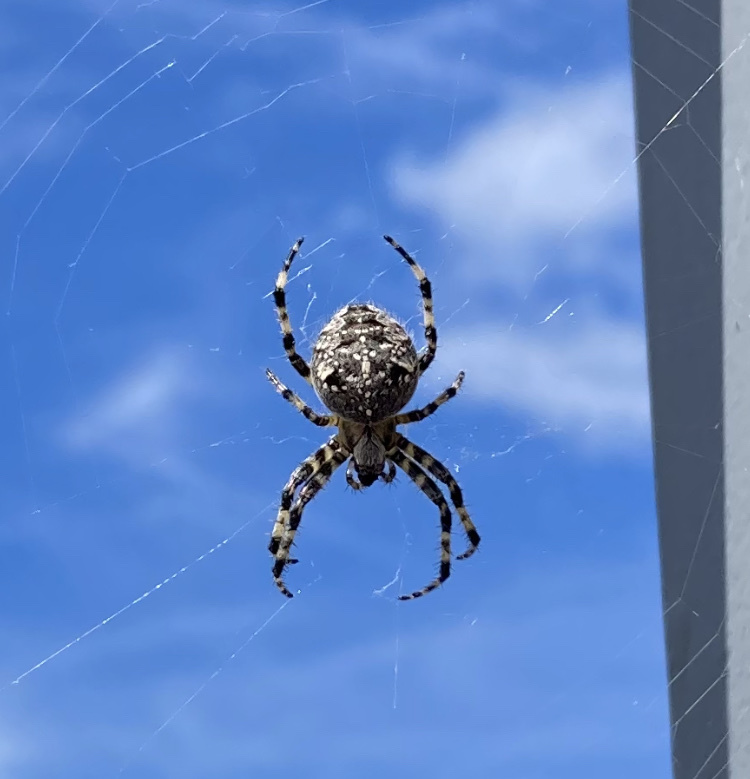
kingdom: Animalia
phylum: Arthropoda
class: Arachnida
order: Araneae
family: Araneidae
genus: Araneus
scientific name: Araneus diadematus
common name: Cross orbweaver
